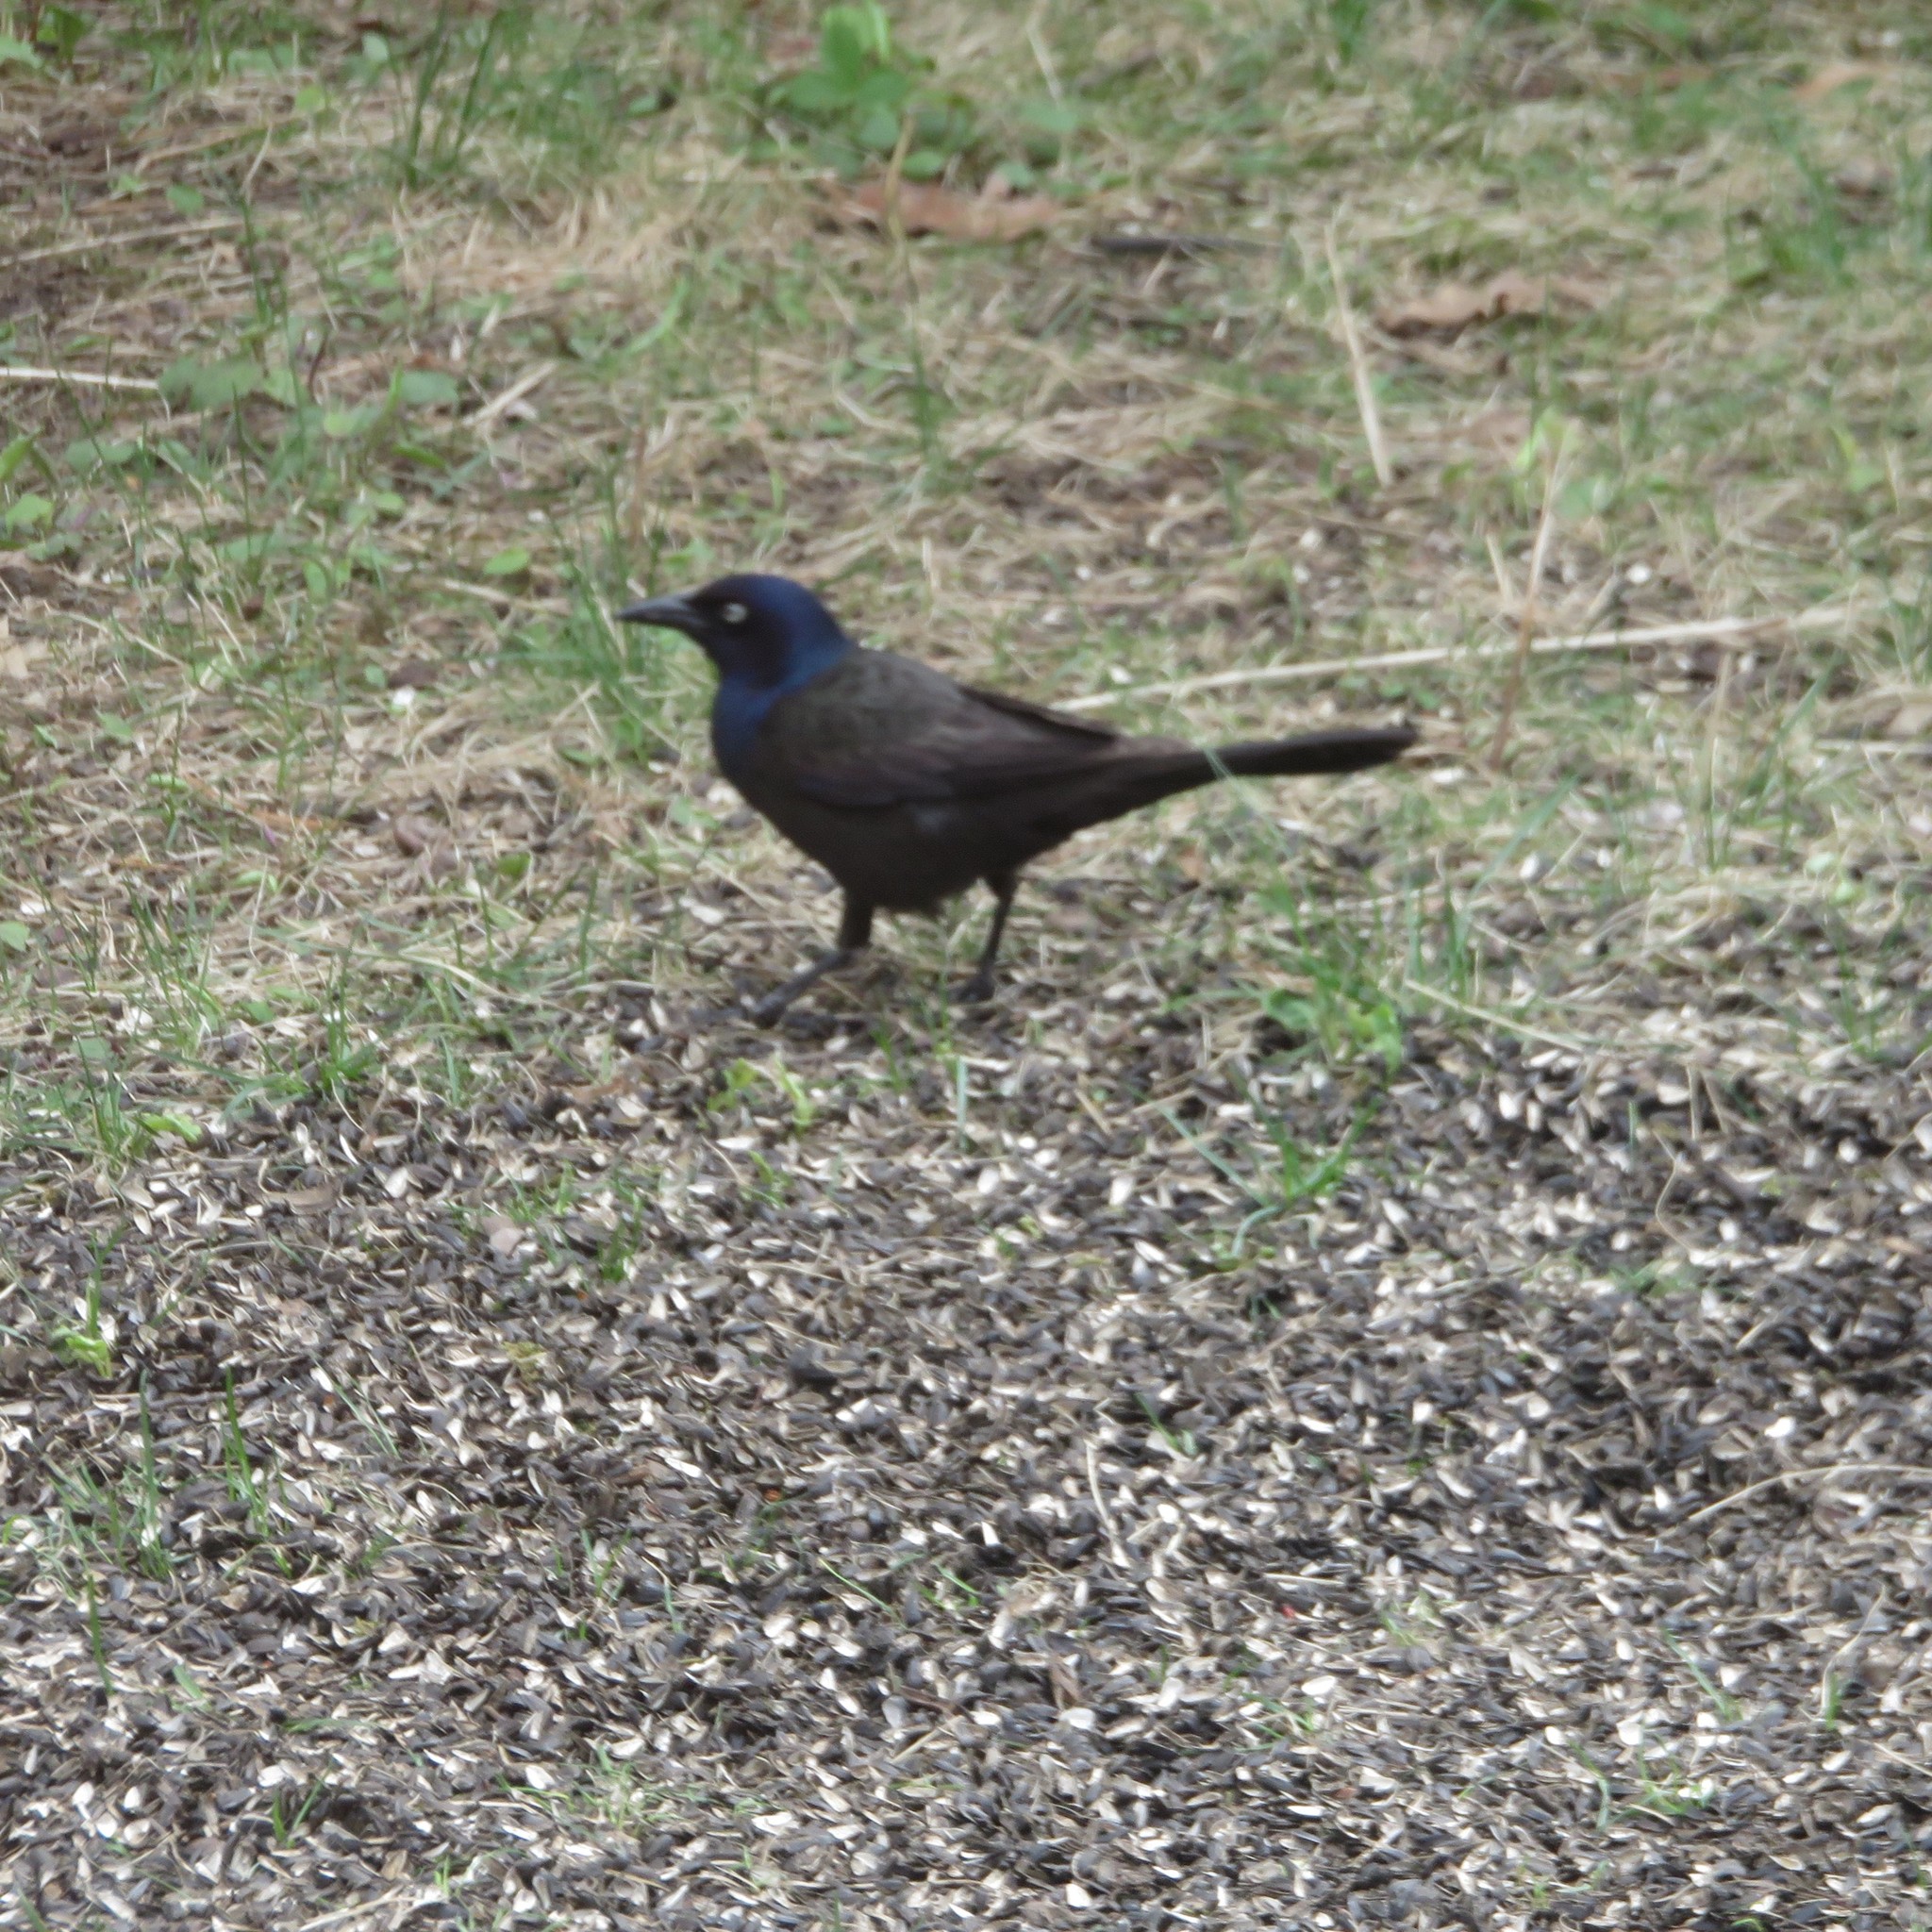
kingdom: Animalia
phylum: Chordata
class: Aves
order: Passeriformes
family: Icteridae
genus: Quiscalus
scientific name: Quiscalus quiscula
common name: Common grackle
